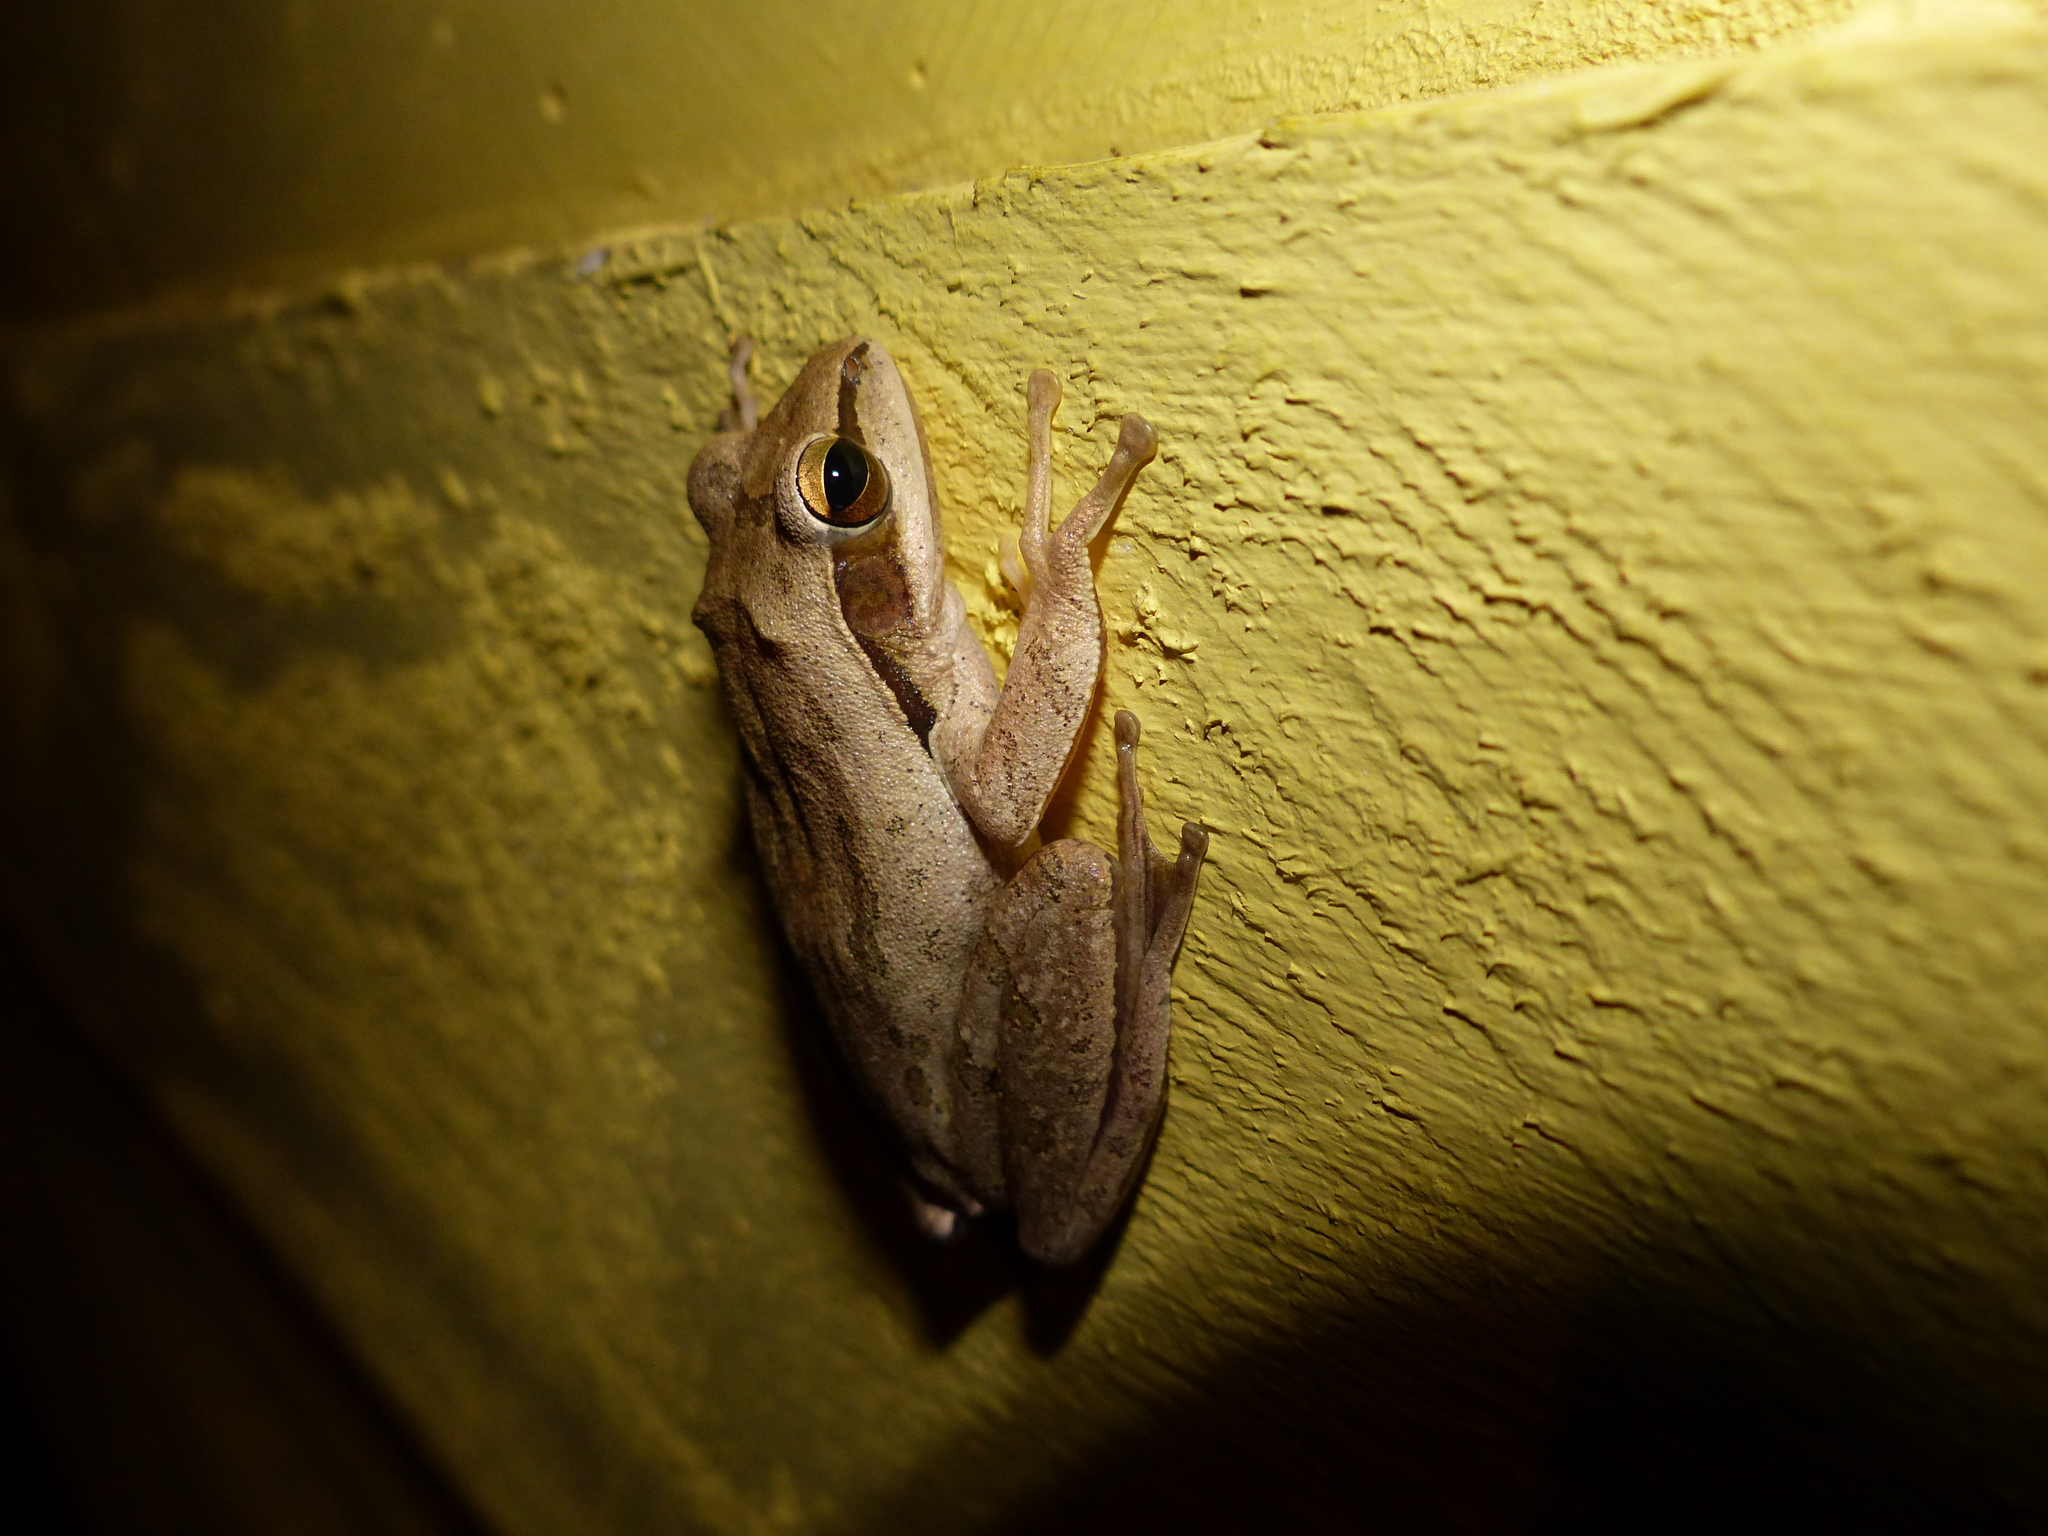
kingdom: Animalia
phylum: Chordata
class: Amphibia
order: Anura
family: Rhacophoridae
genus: Polypedates
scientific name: Polypedates maculatus
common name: Himalayan tree frog
